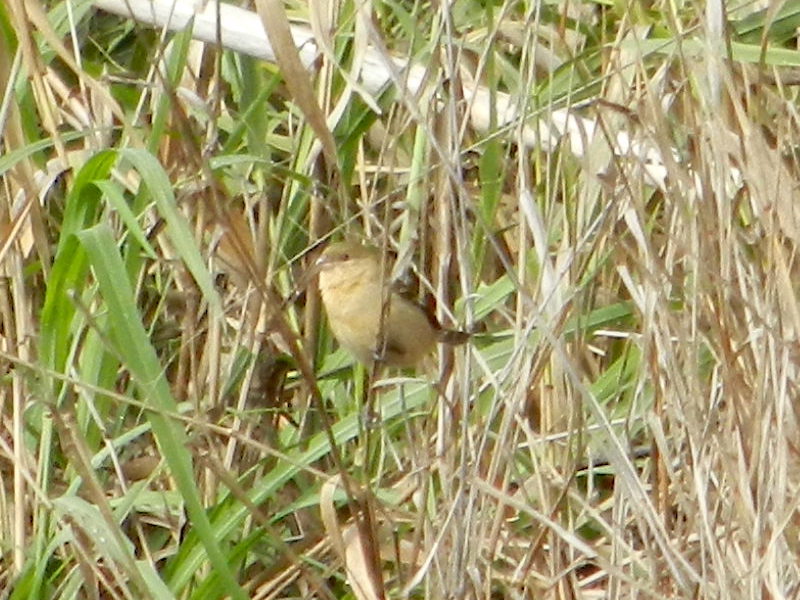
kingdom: Animalia
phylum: Chordata
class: Aves
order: Passeriformes
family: Thraupidae
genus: Sporophila
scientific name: Sporophila morelleti
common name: Morelet's seedeater
